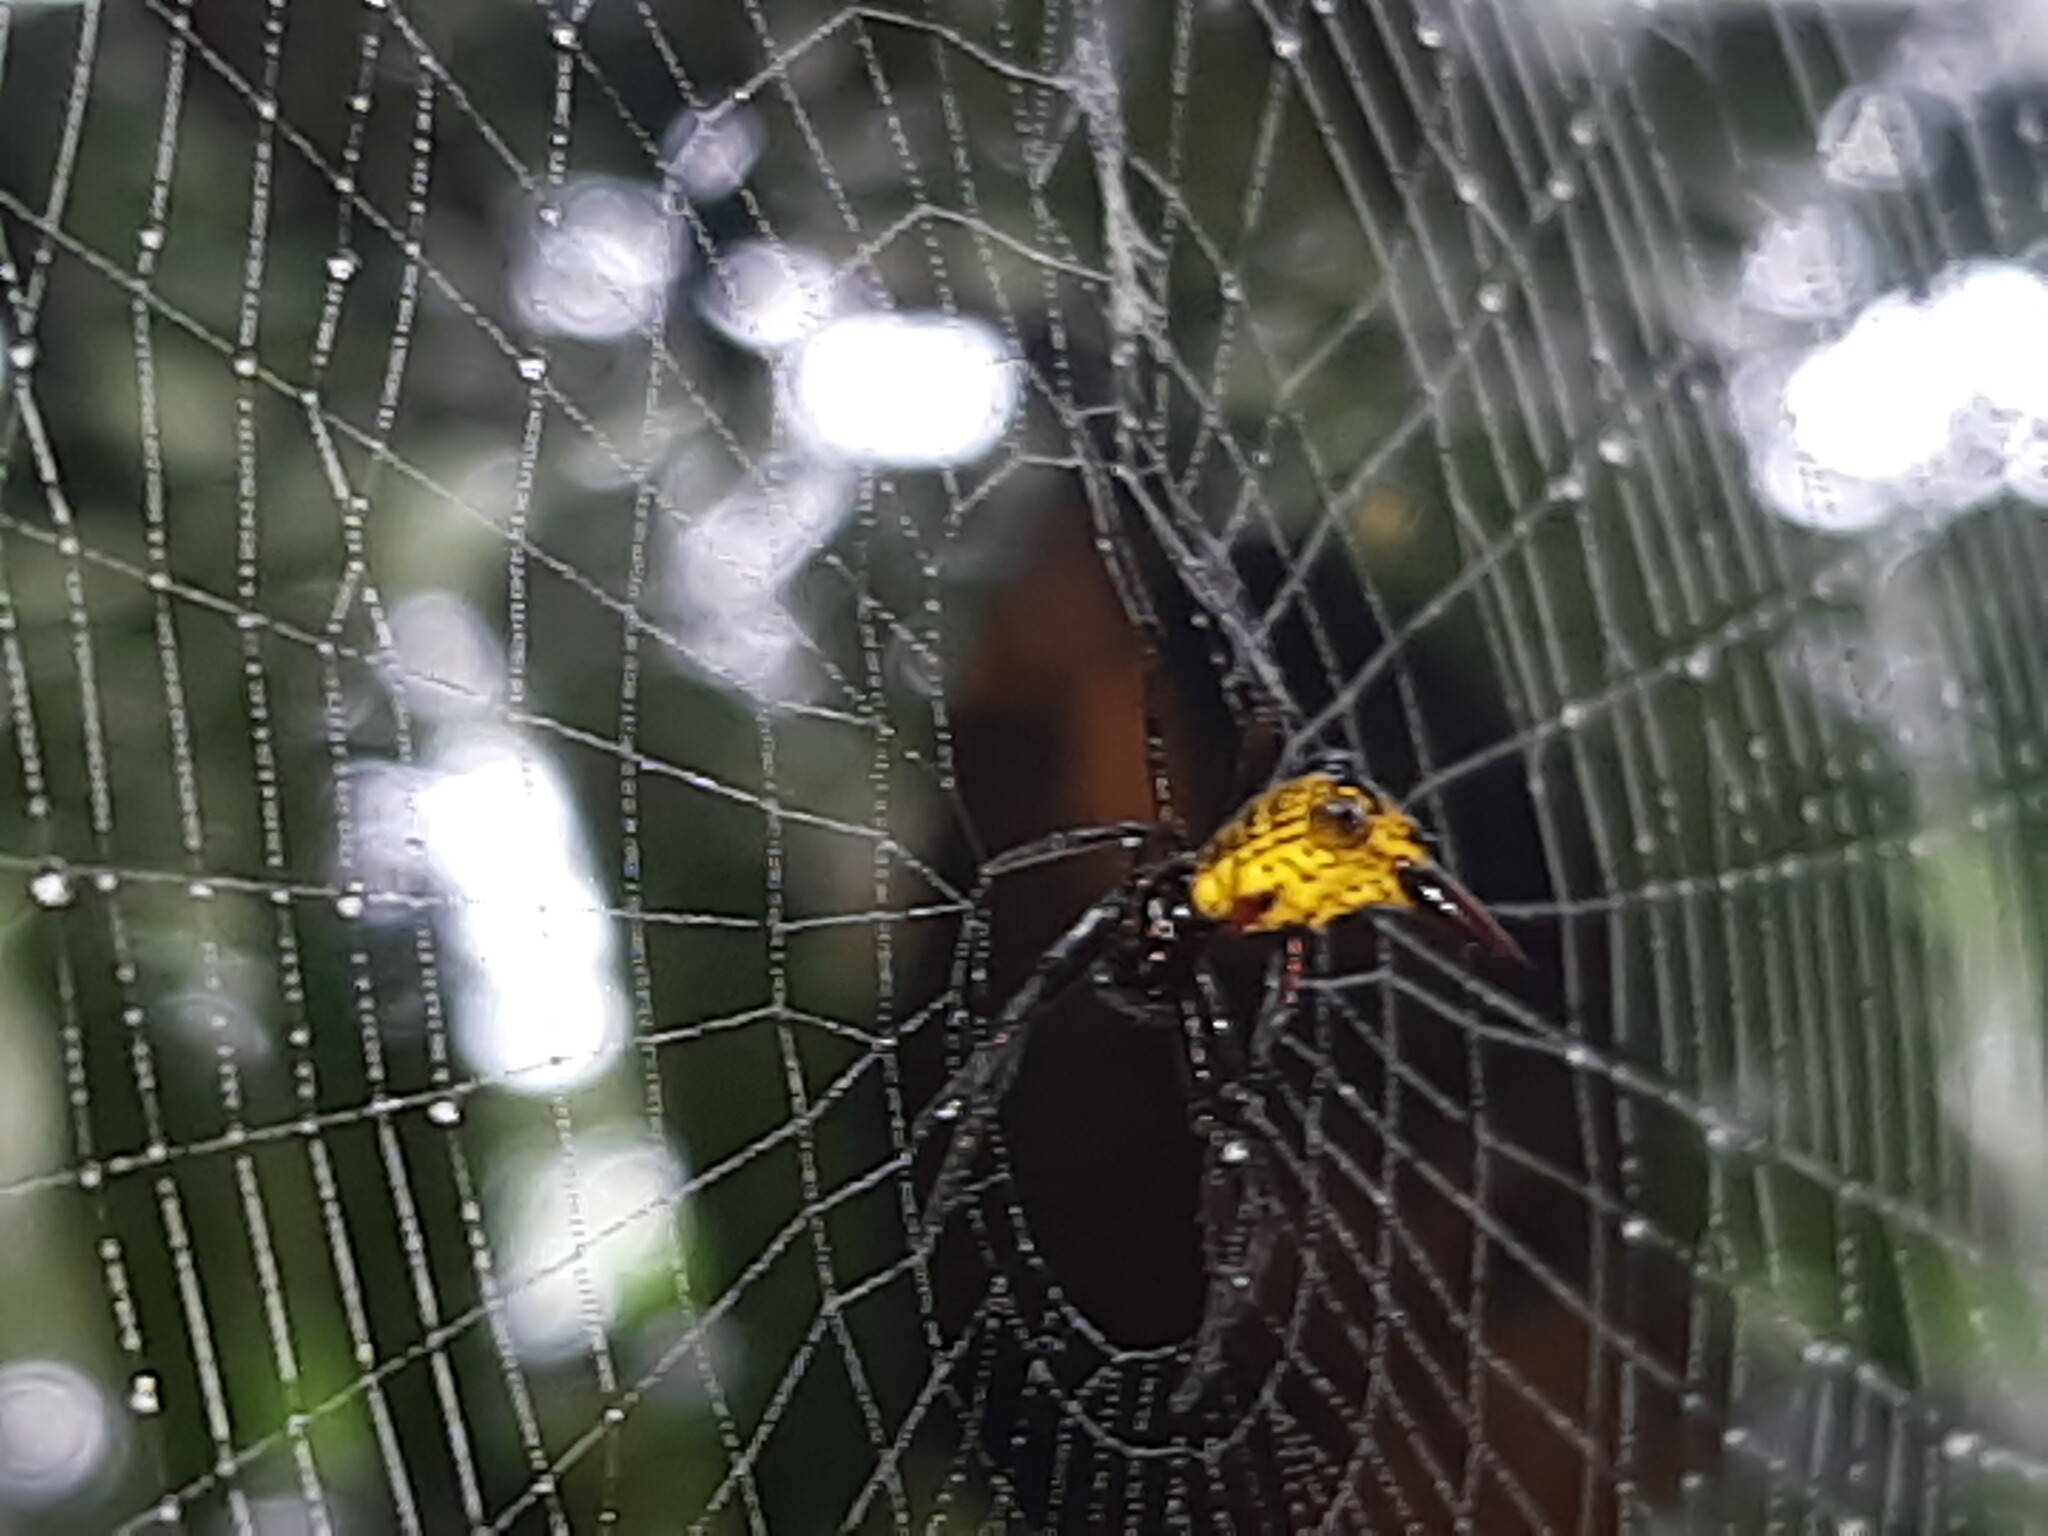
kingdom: Animalia
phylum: Arthropoda
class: Arachnida
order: Araneae
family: Araneidae
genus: Micrathena
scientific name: Micrathena striata
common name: Orb weavers
